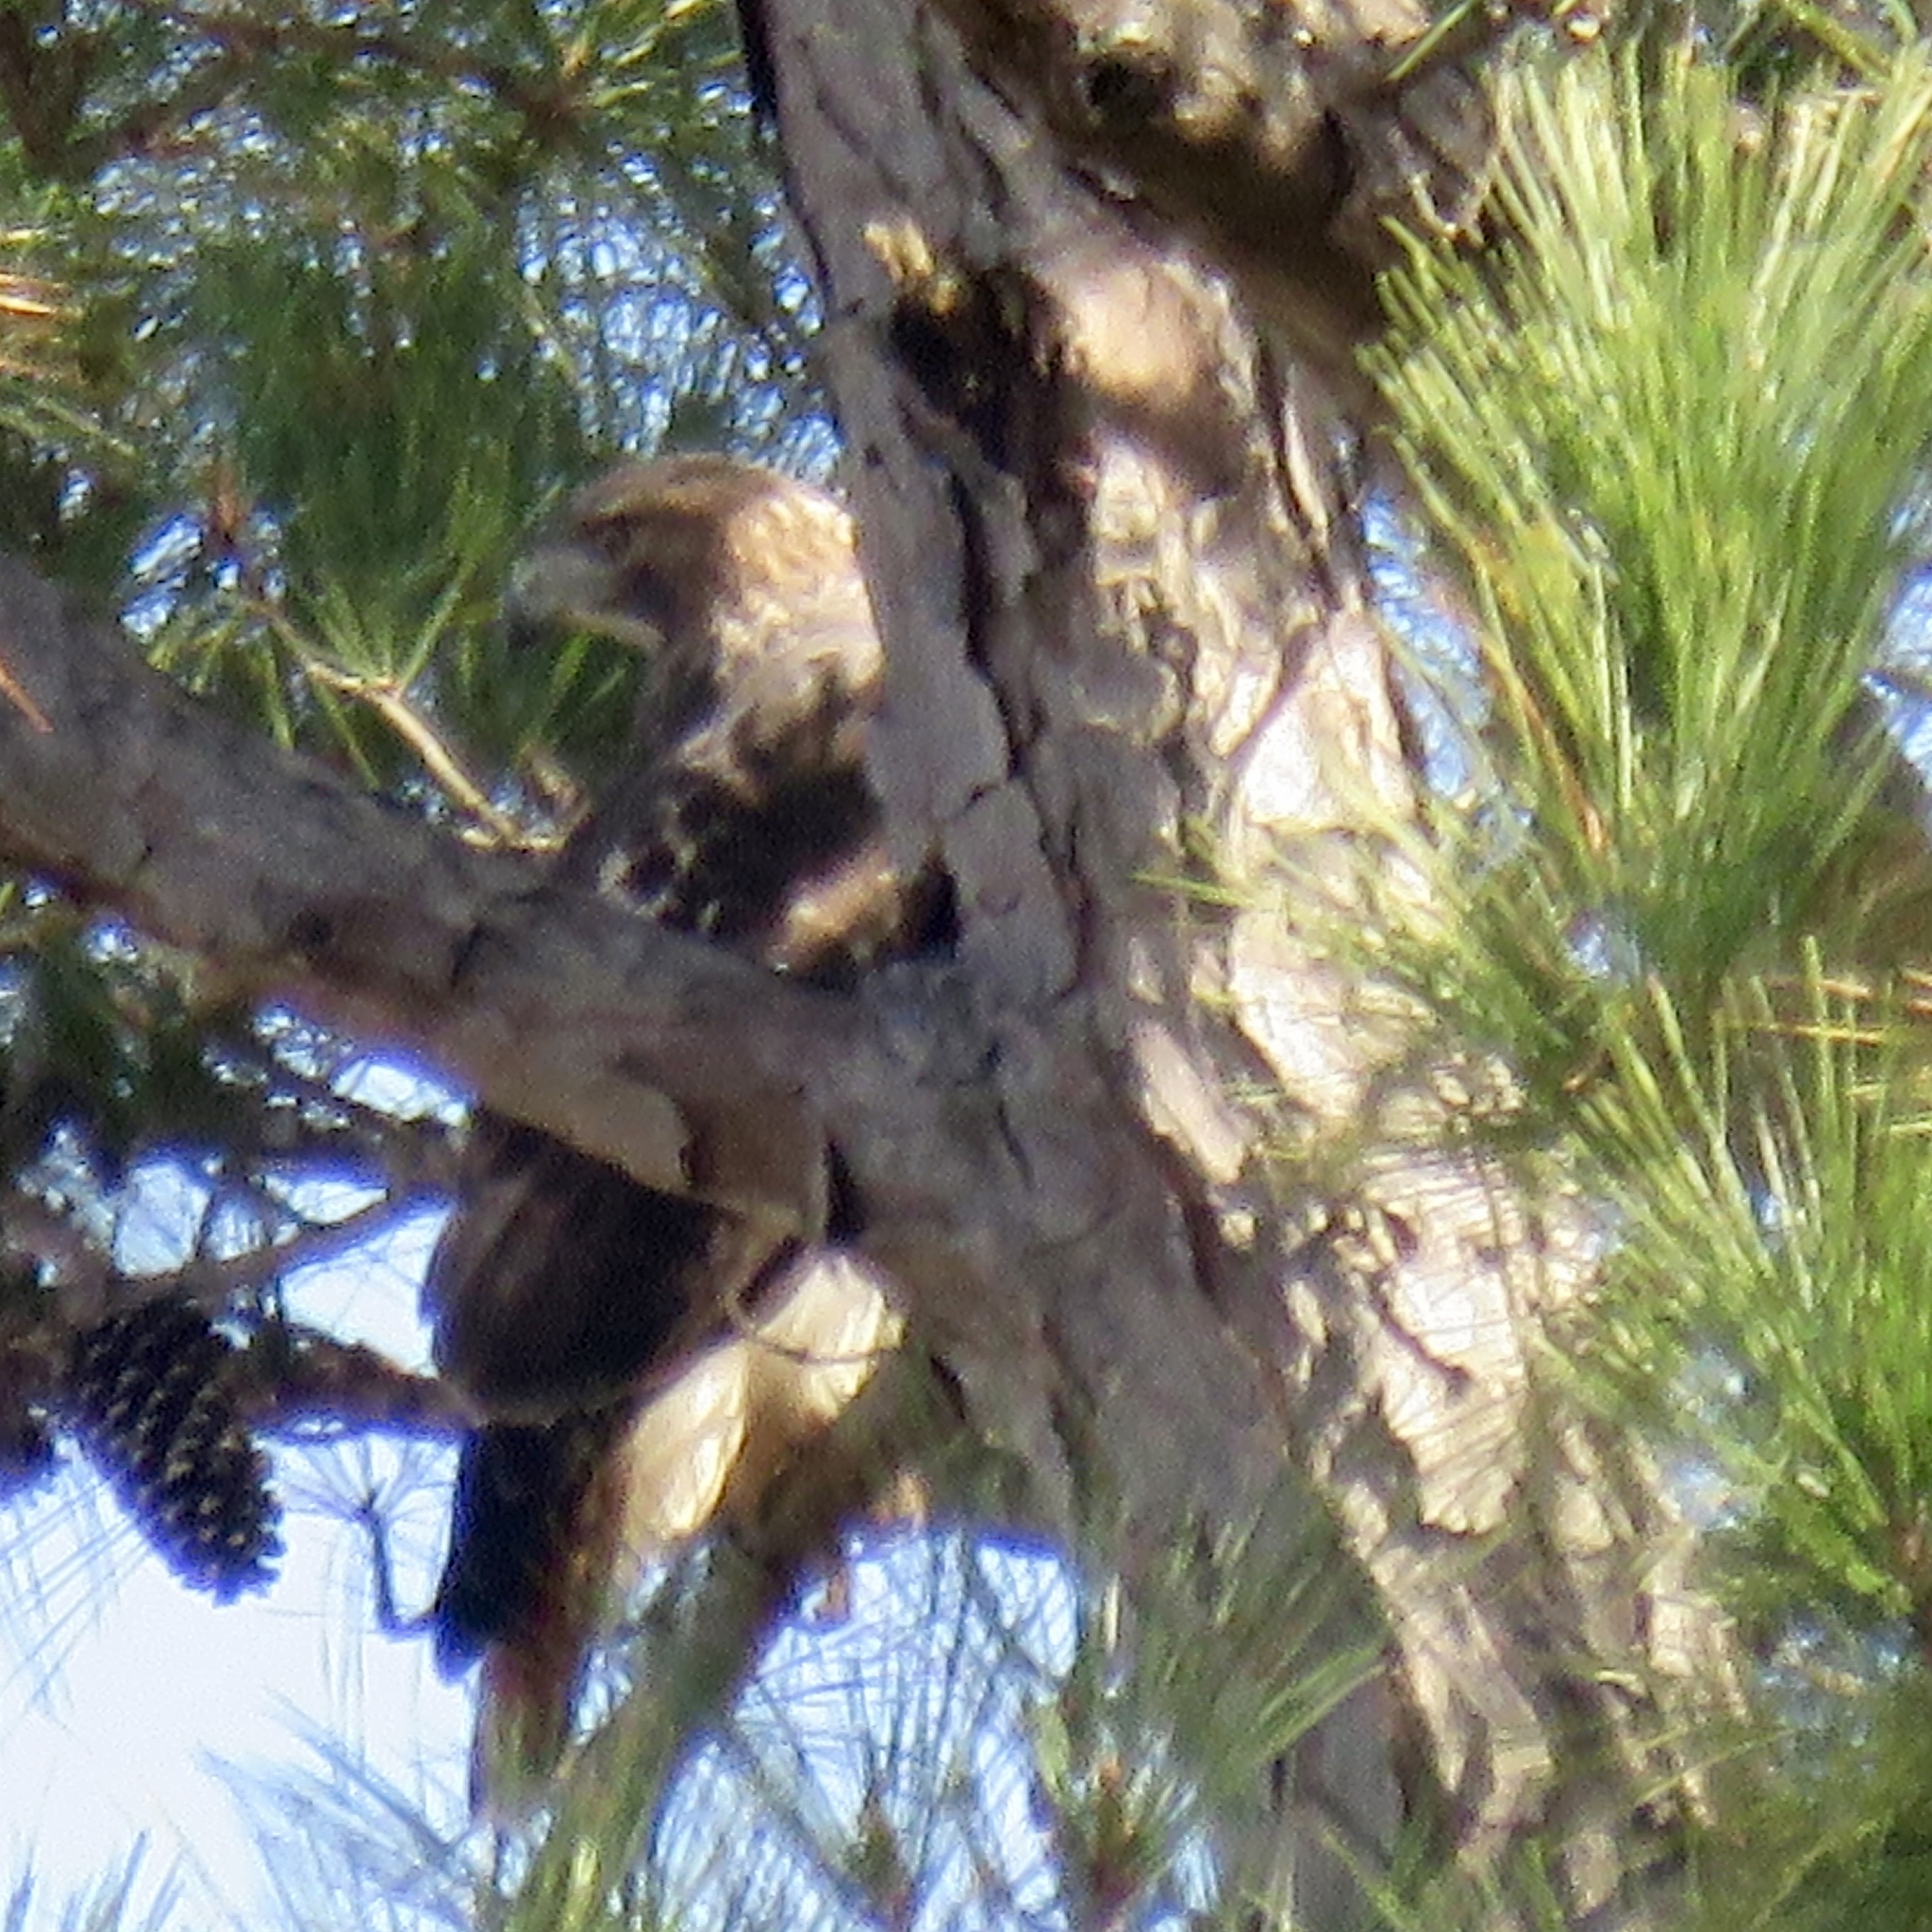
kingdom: Animalia
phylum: Chordata
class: Aves
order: Accipitriformes
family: Accipitridae
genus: Buteo
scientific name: Buteo jamaicensis
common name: Red-tailed hawk
